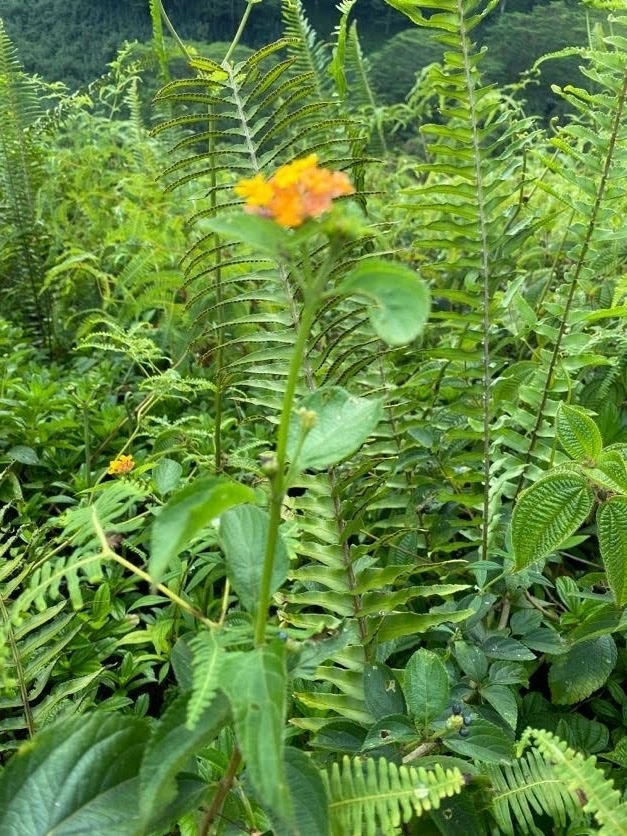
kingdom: Plantae
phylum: Tracheophyta
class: Magnoliopsida
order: Lamiales
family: Verbenaceae
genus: Lantana
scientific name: Lantana camara
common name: Lantana
